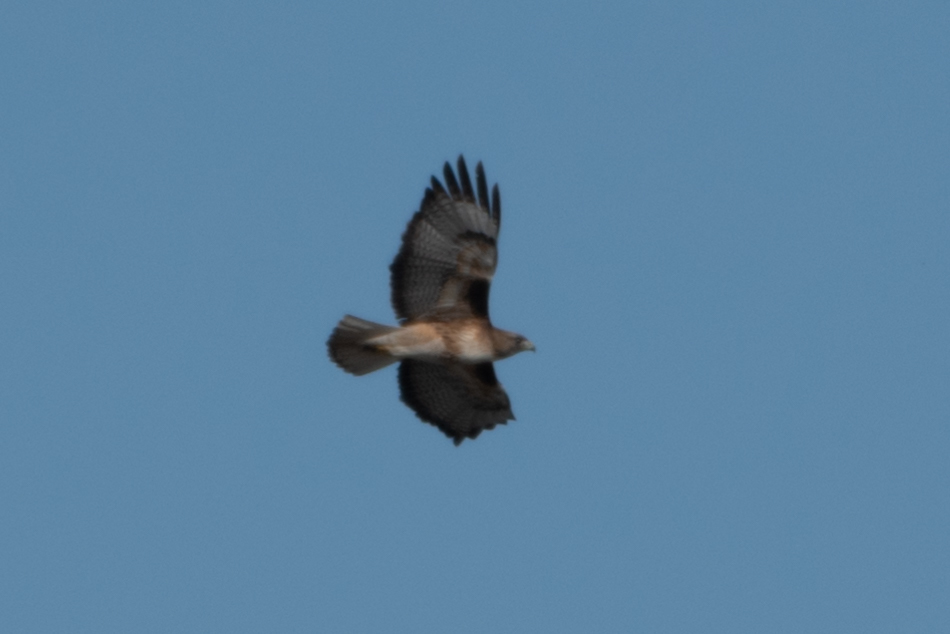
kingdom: Animalia
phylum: Chordata
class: Aves
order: Accipitriformes
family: Accipitridae
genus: Buteo
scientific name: Buteo jamaicensis
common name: Red-tailed hawk
